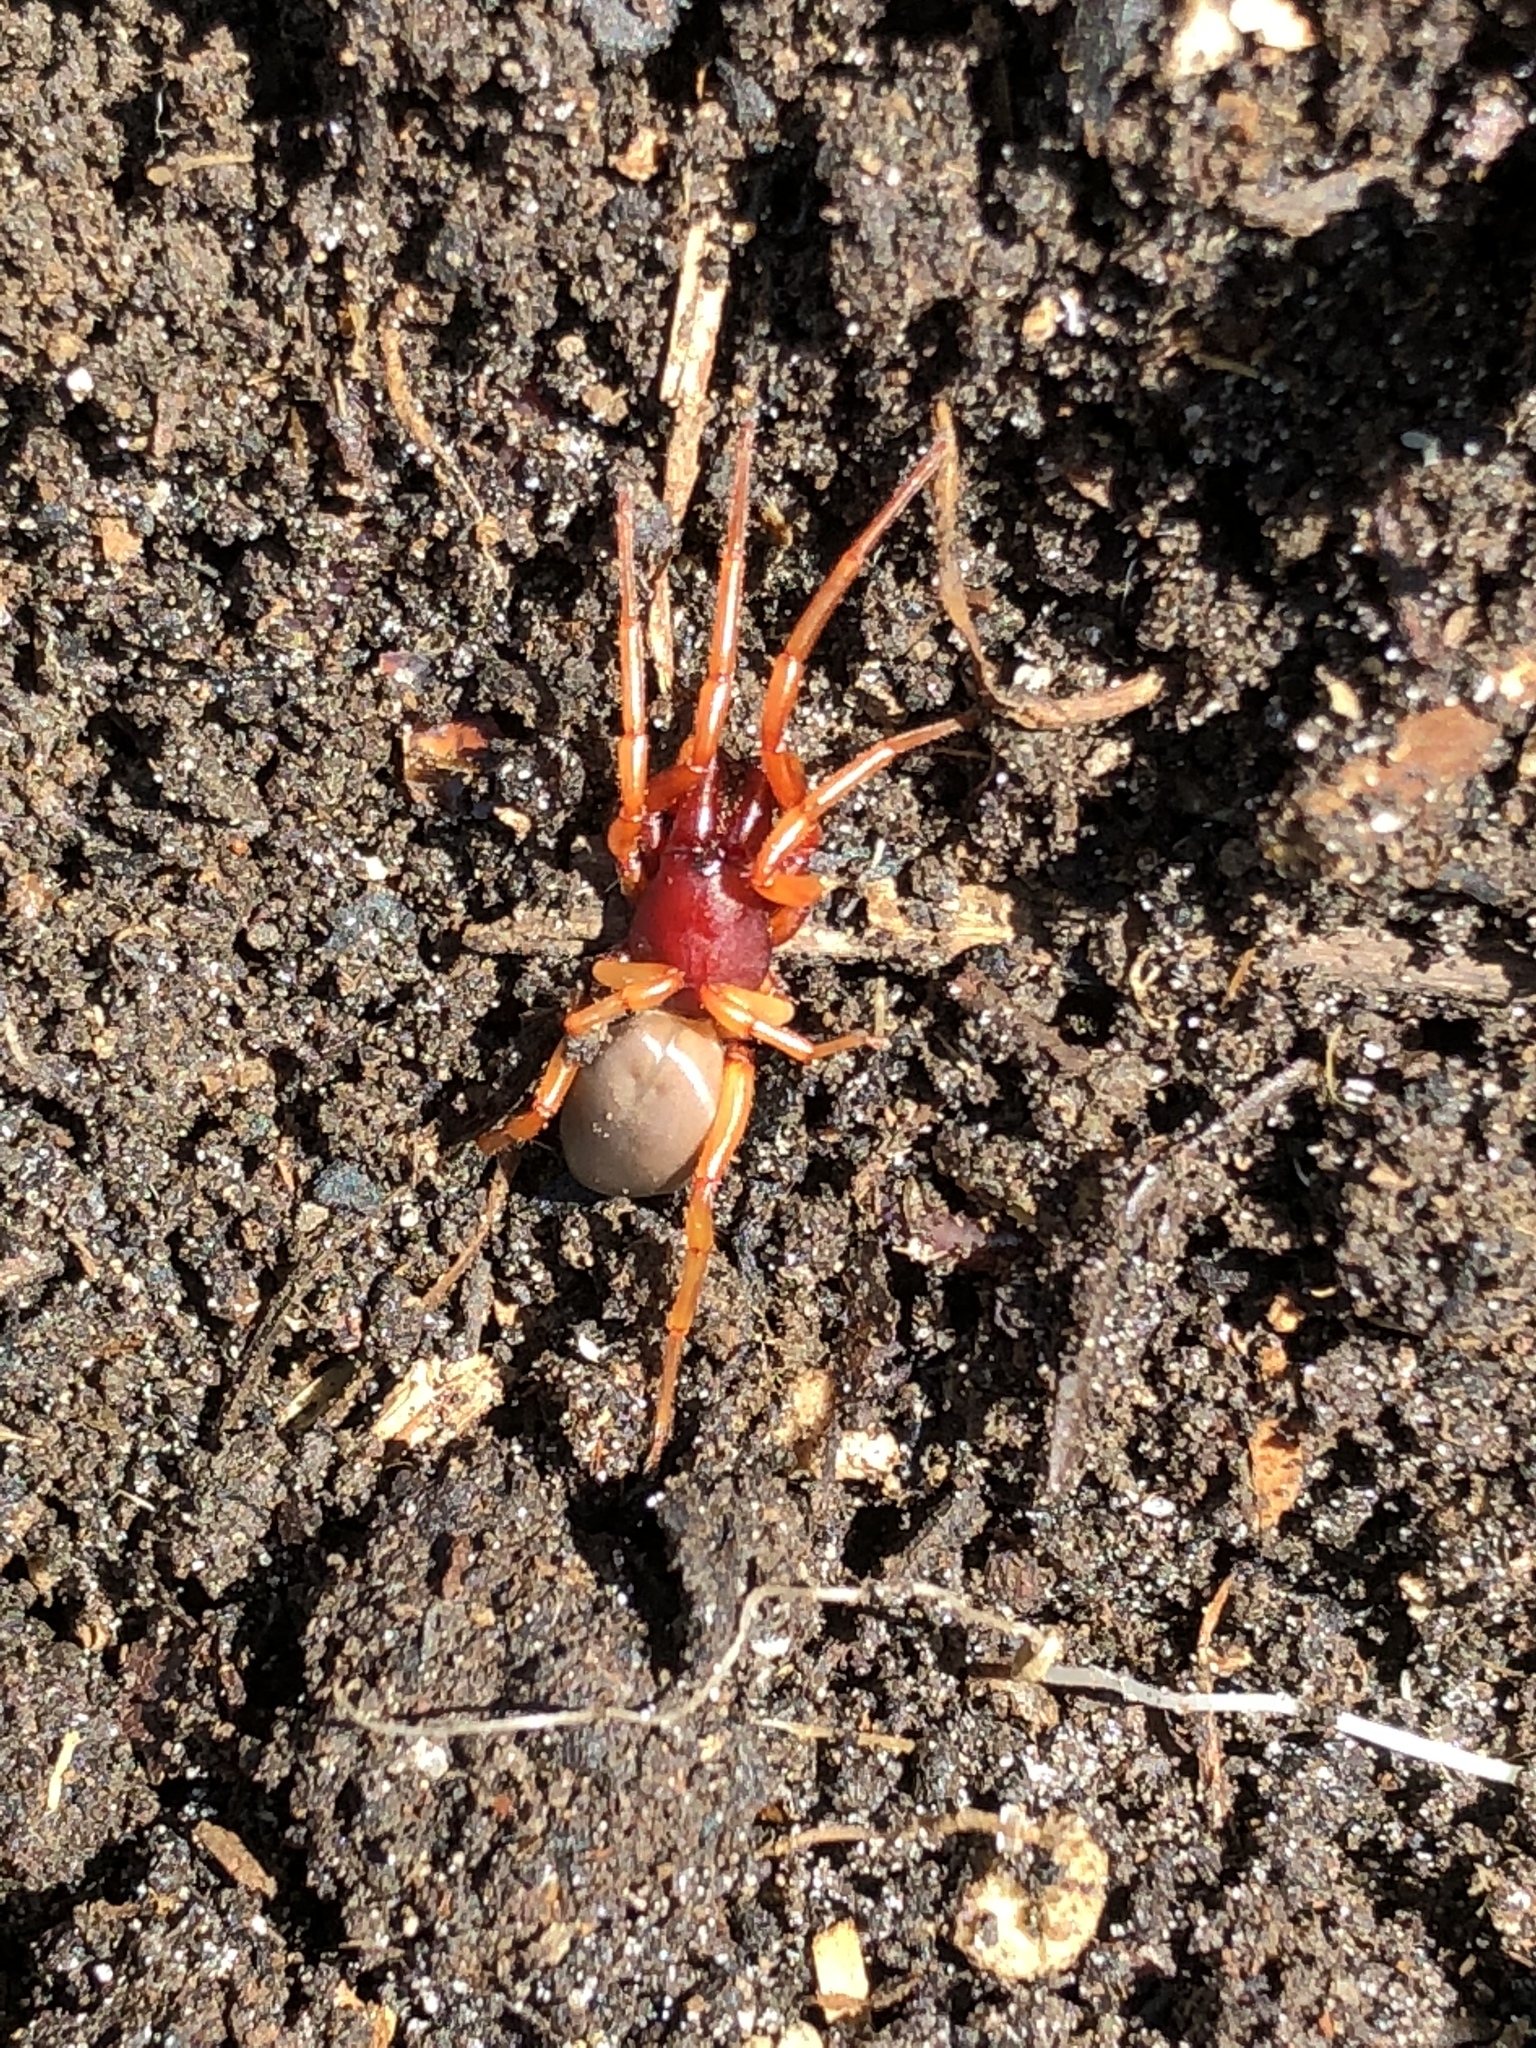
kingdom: Animalia
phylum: Arthropoda
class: Arachnida
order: Araneae
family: Dysderidae
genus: Dysdera
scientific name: Dysdera crocata
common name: Woodlouse spider
